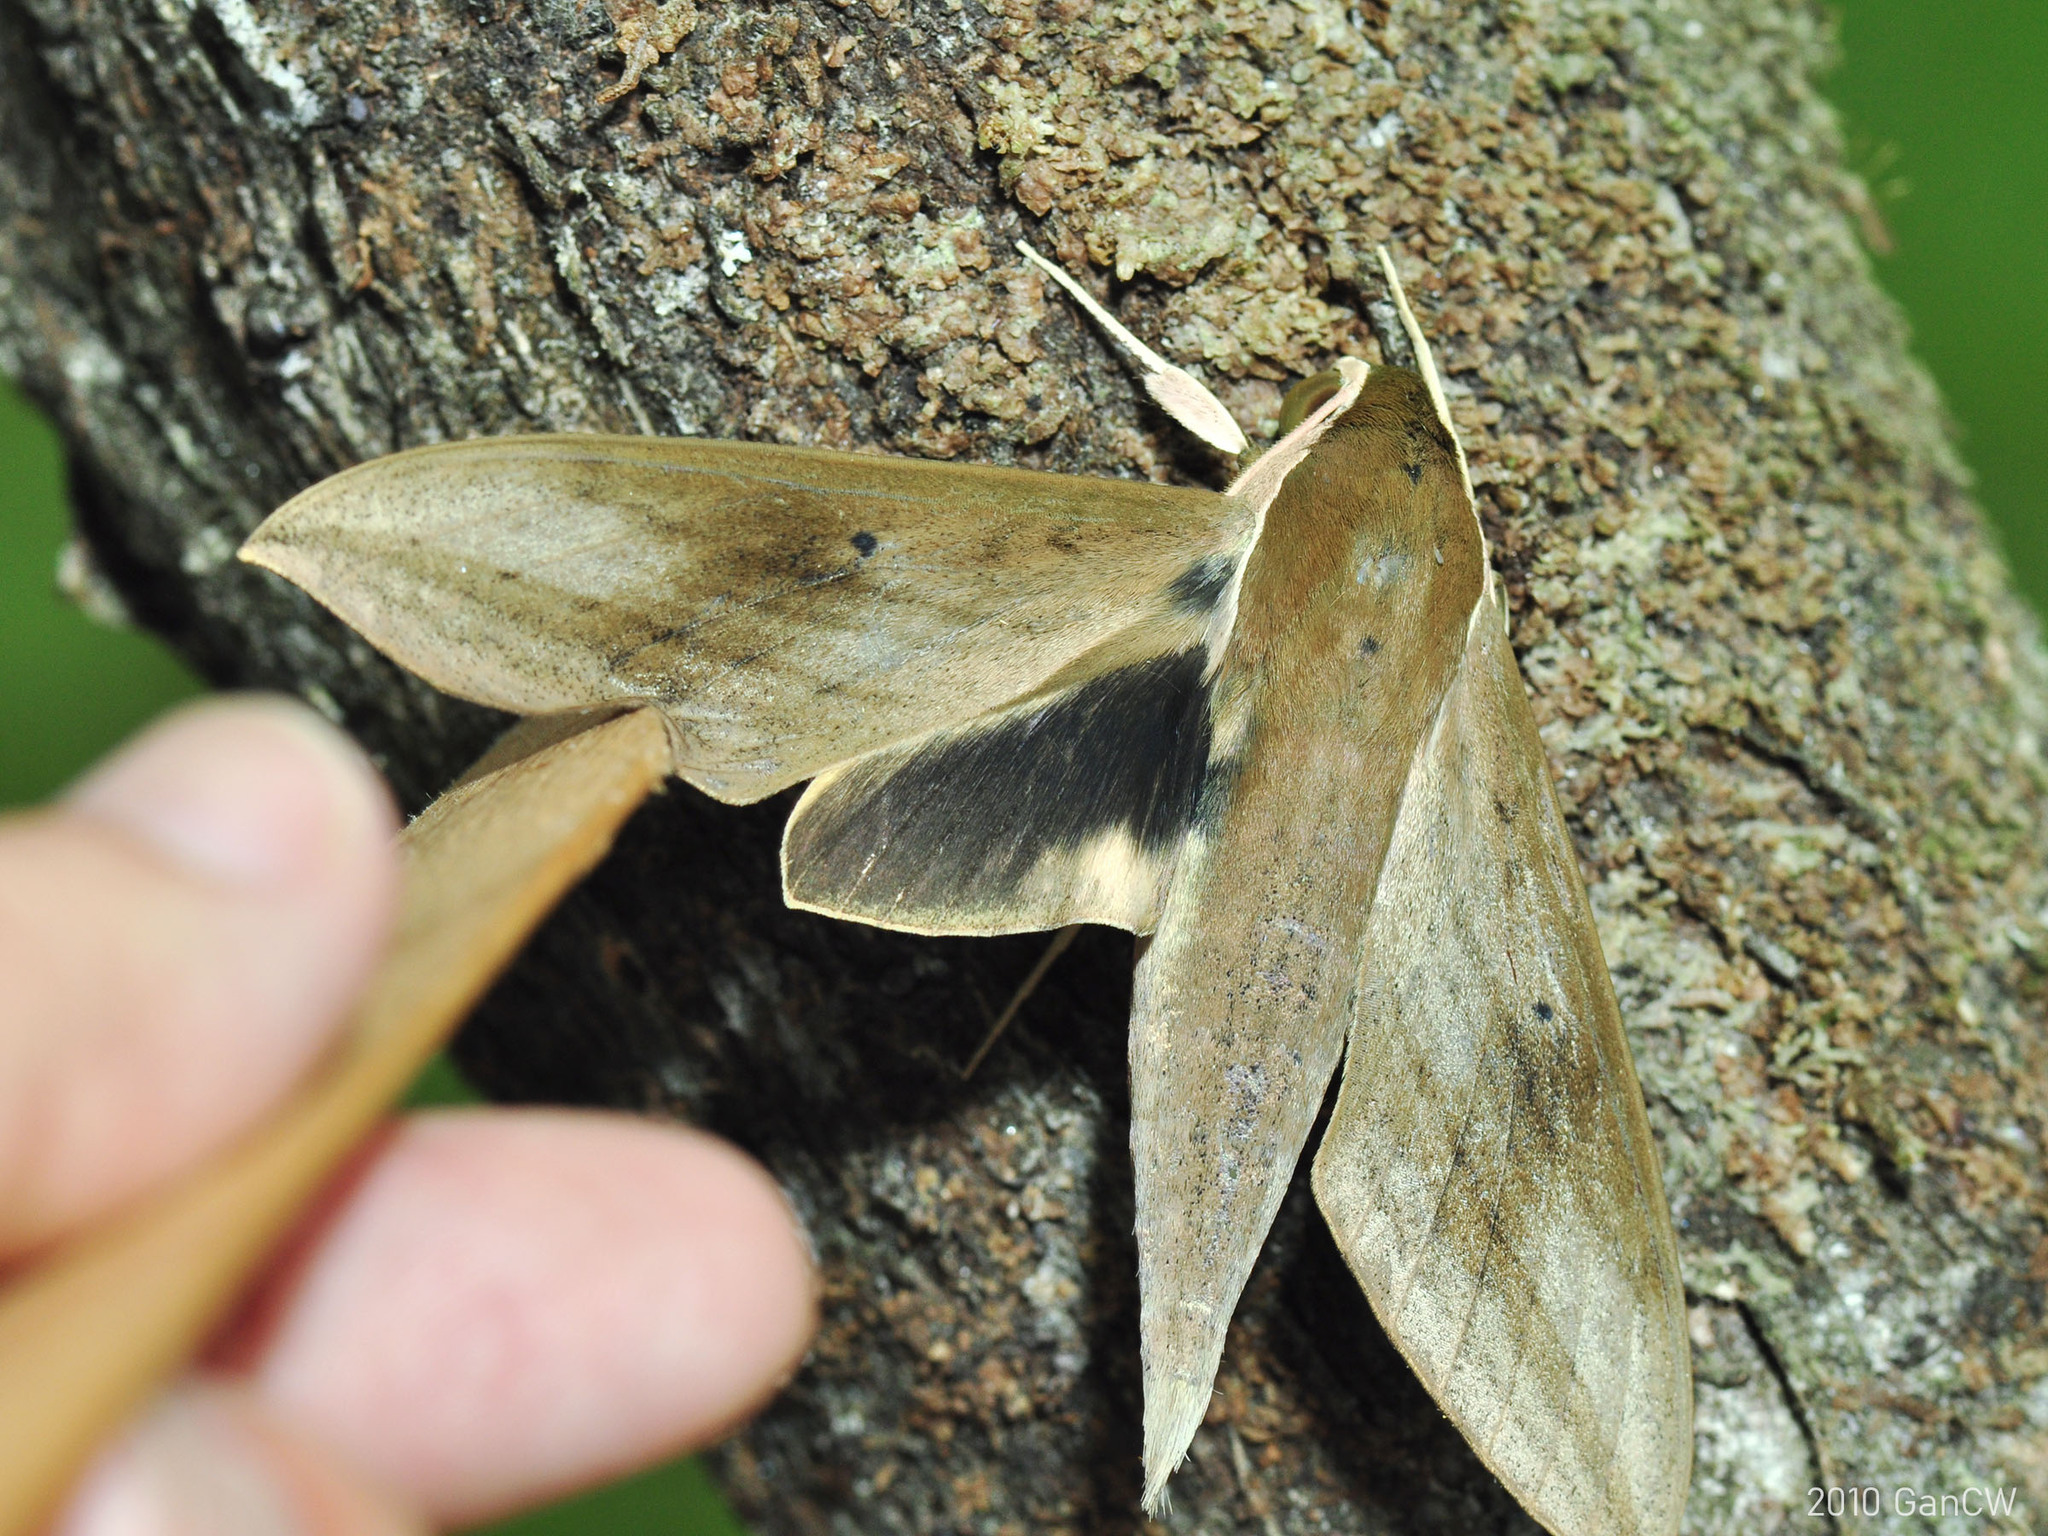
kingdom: Animalia
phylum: Arthropoda
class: Insecta
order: Lepidoptera
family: Sphingidae
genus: Theretra
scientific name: Theretra sumatrensis
